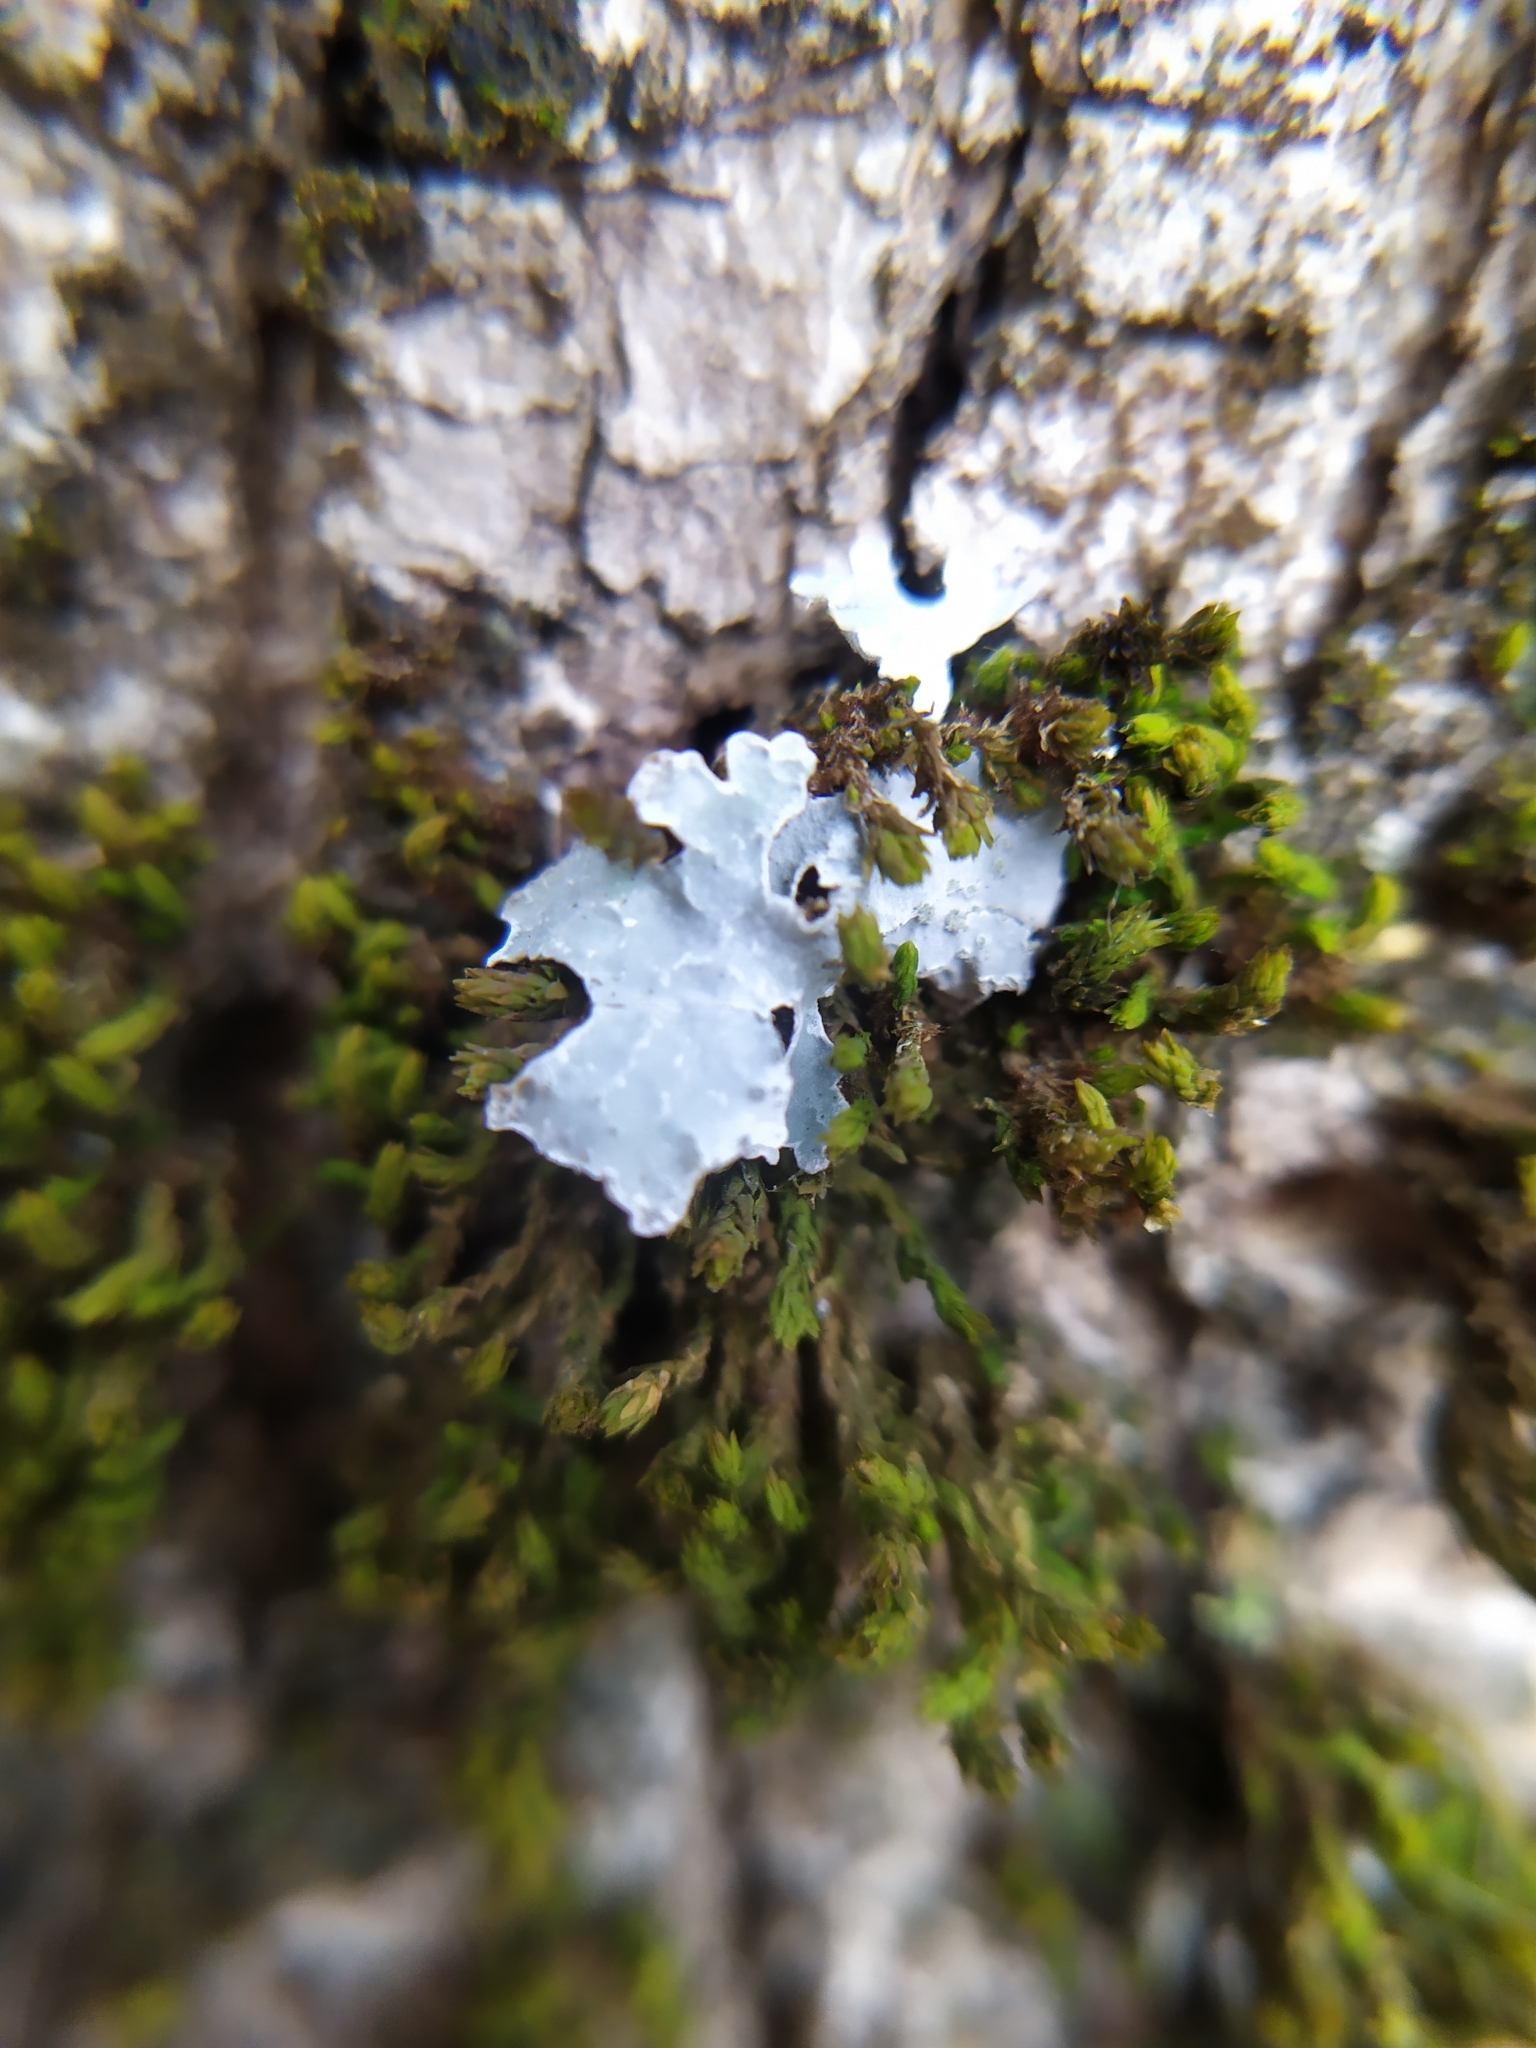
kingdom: Fungi
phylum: Ascomycota
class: Lecanoromycetes
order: Lecanorales
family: Parmeliaceae
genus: Parmelia
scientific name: Parmelia sulcata
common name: Netted shield lichen
